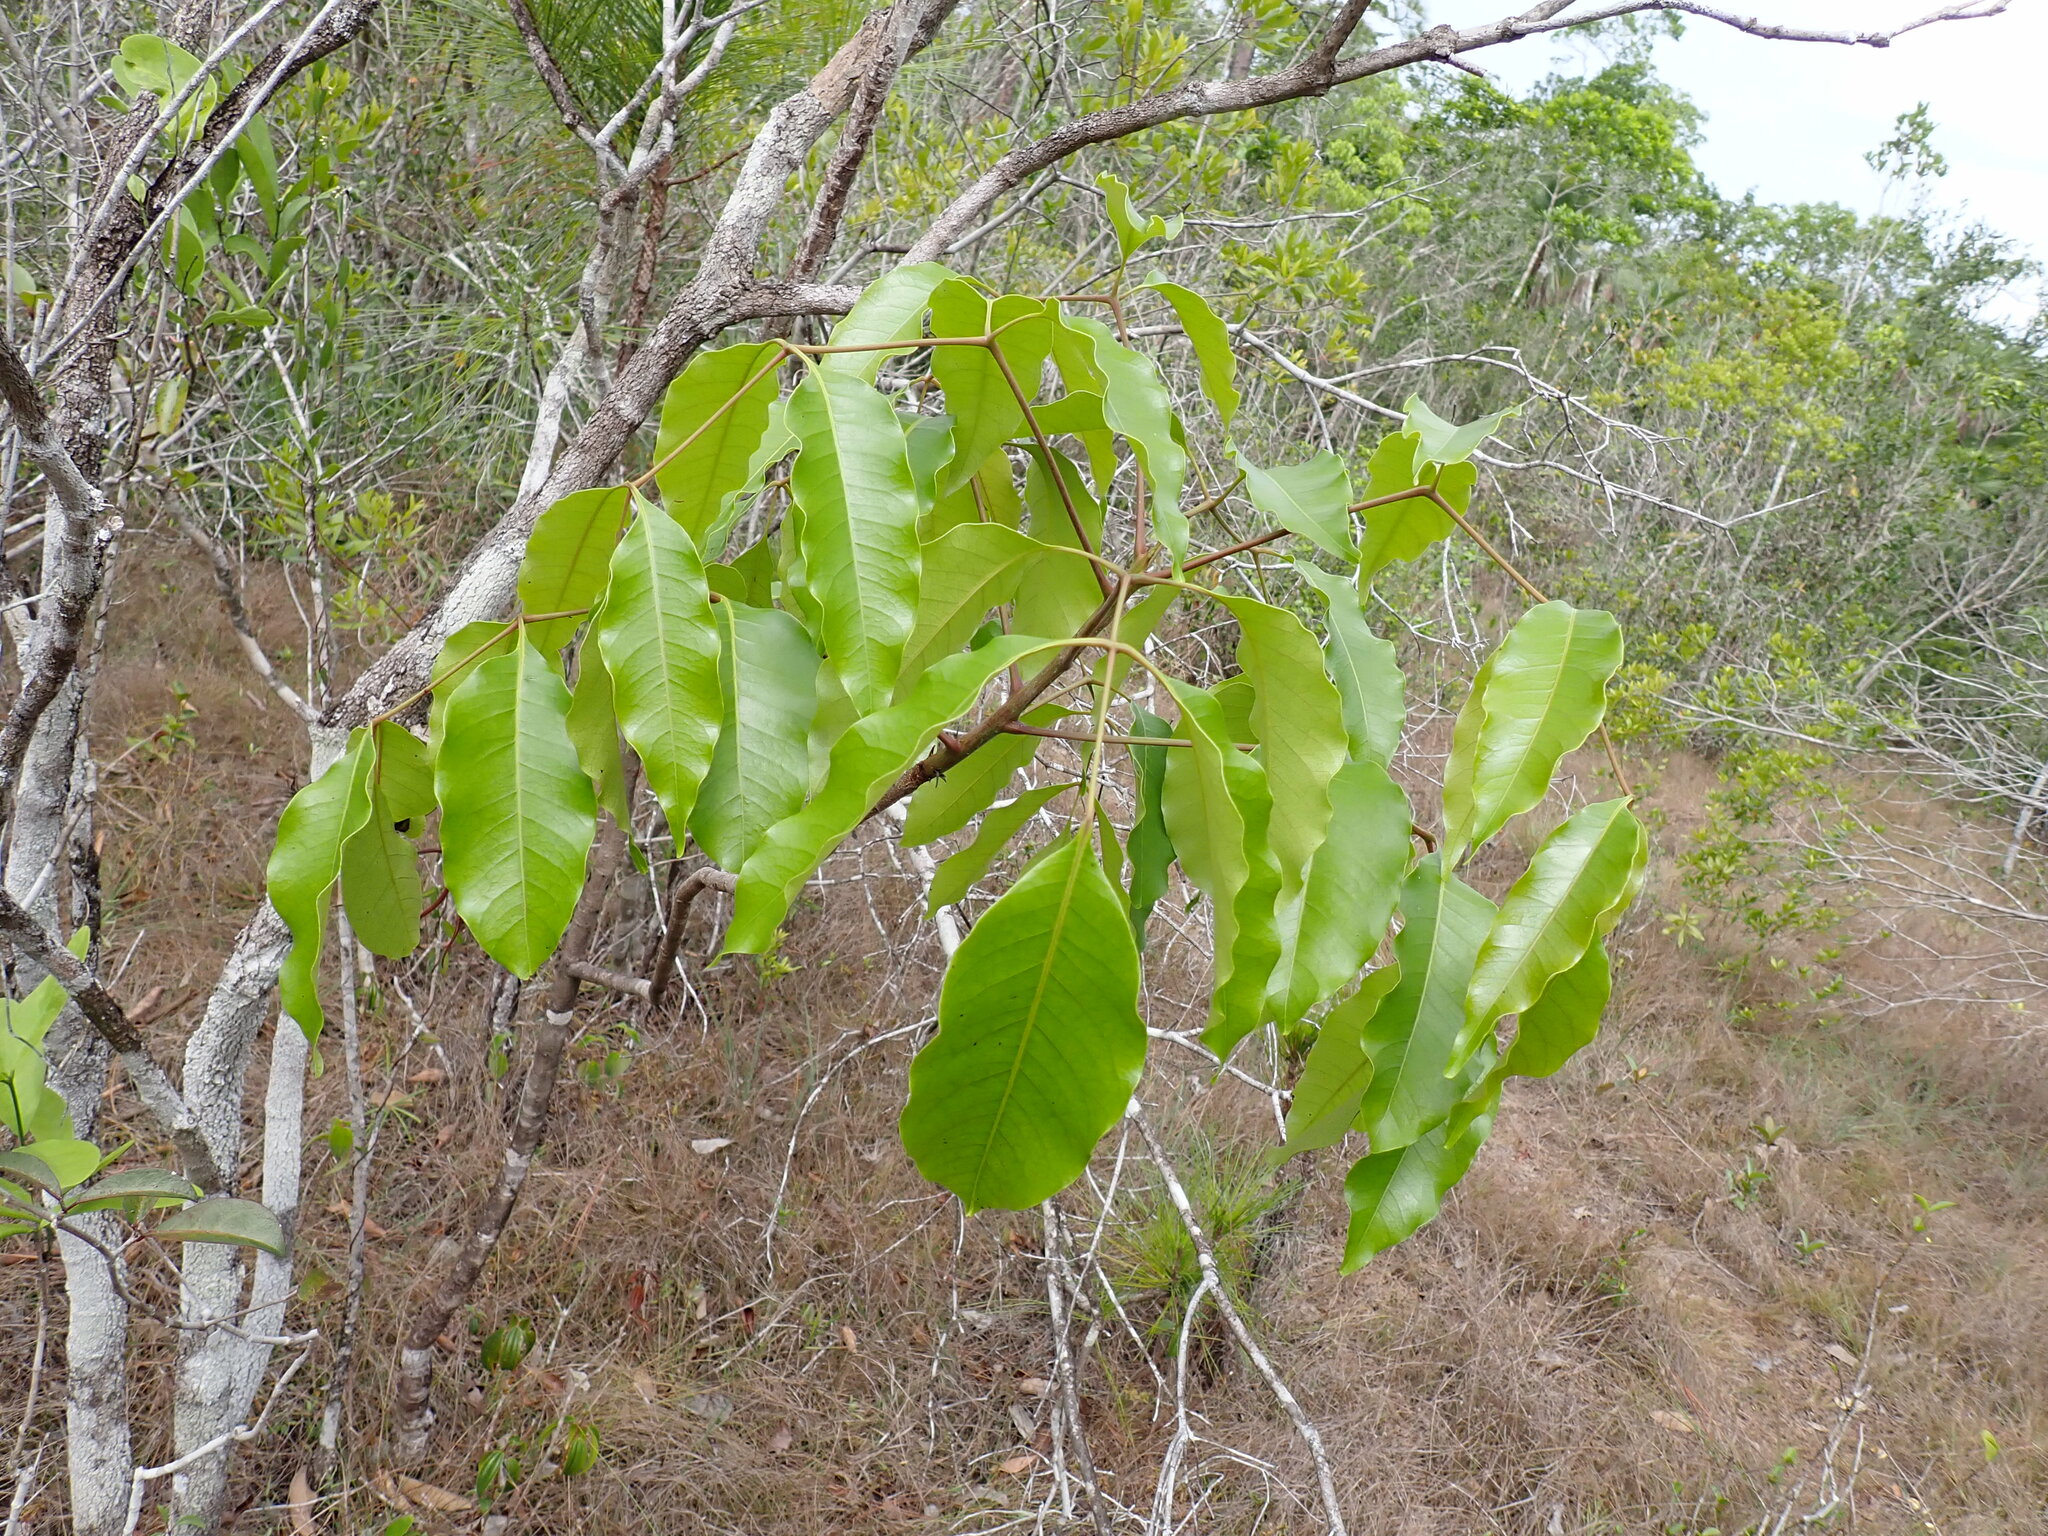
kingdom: Plantae
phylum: Tracheophyta
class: Magnoliopsida
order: Sapindales
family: Anacardiaceae
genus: Metopium
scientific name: Metopium brownei
